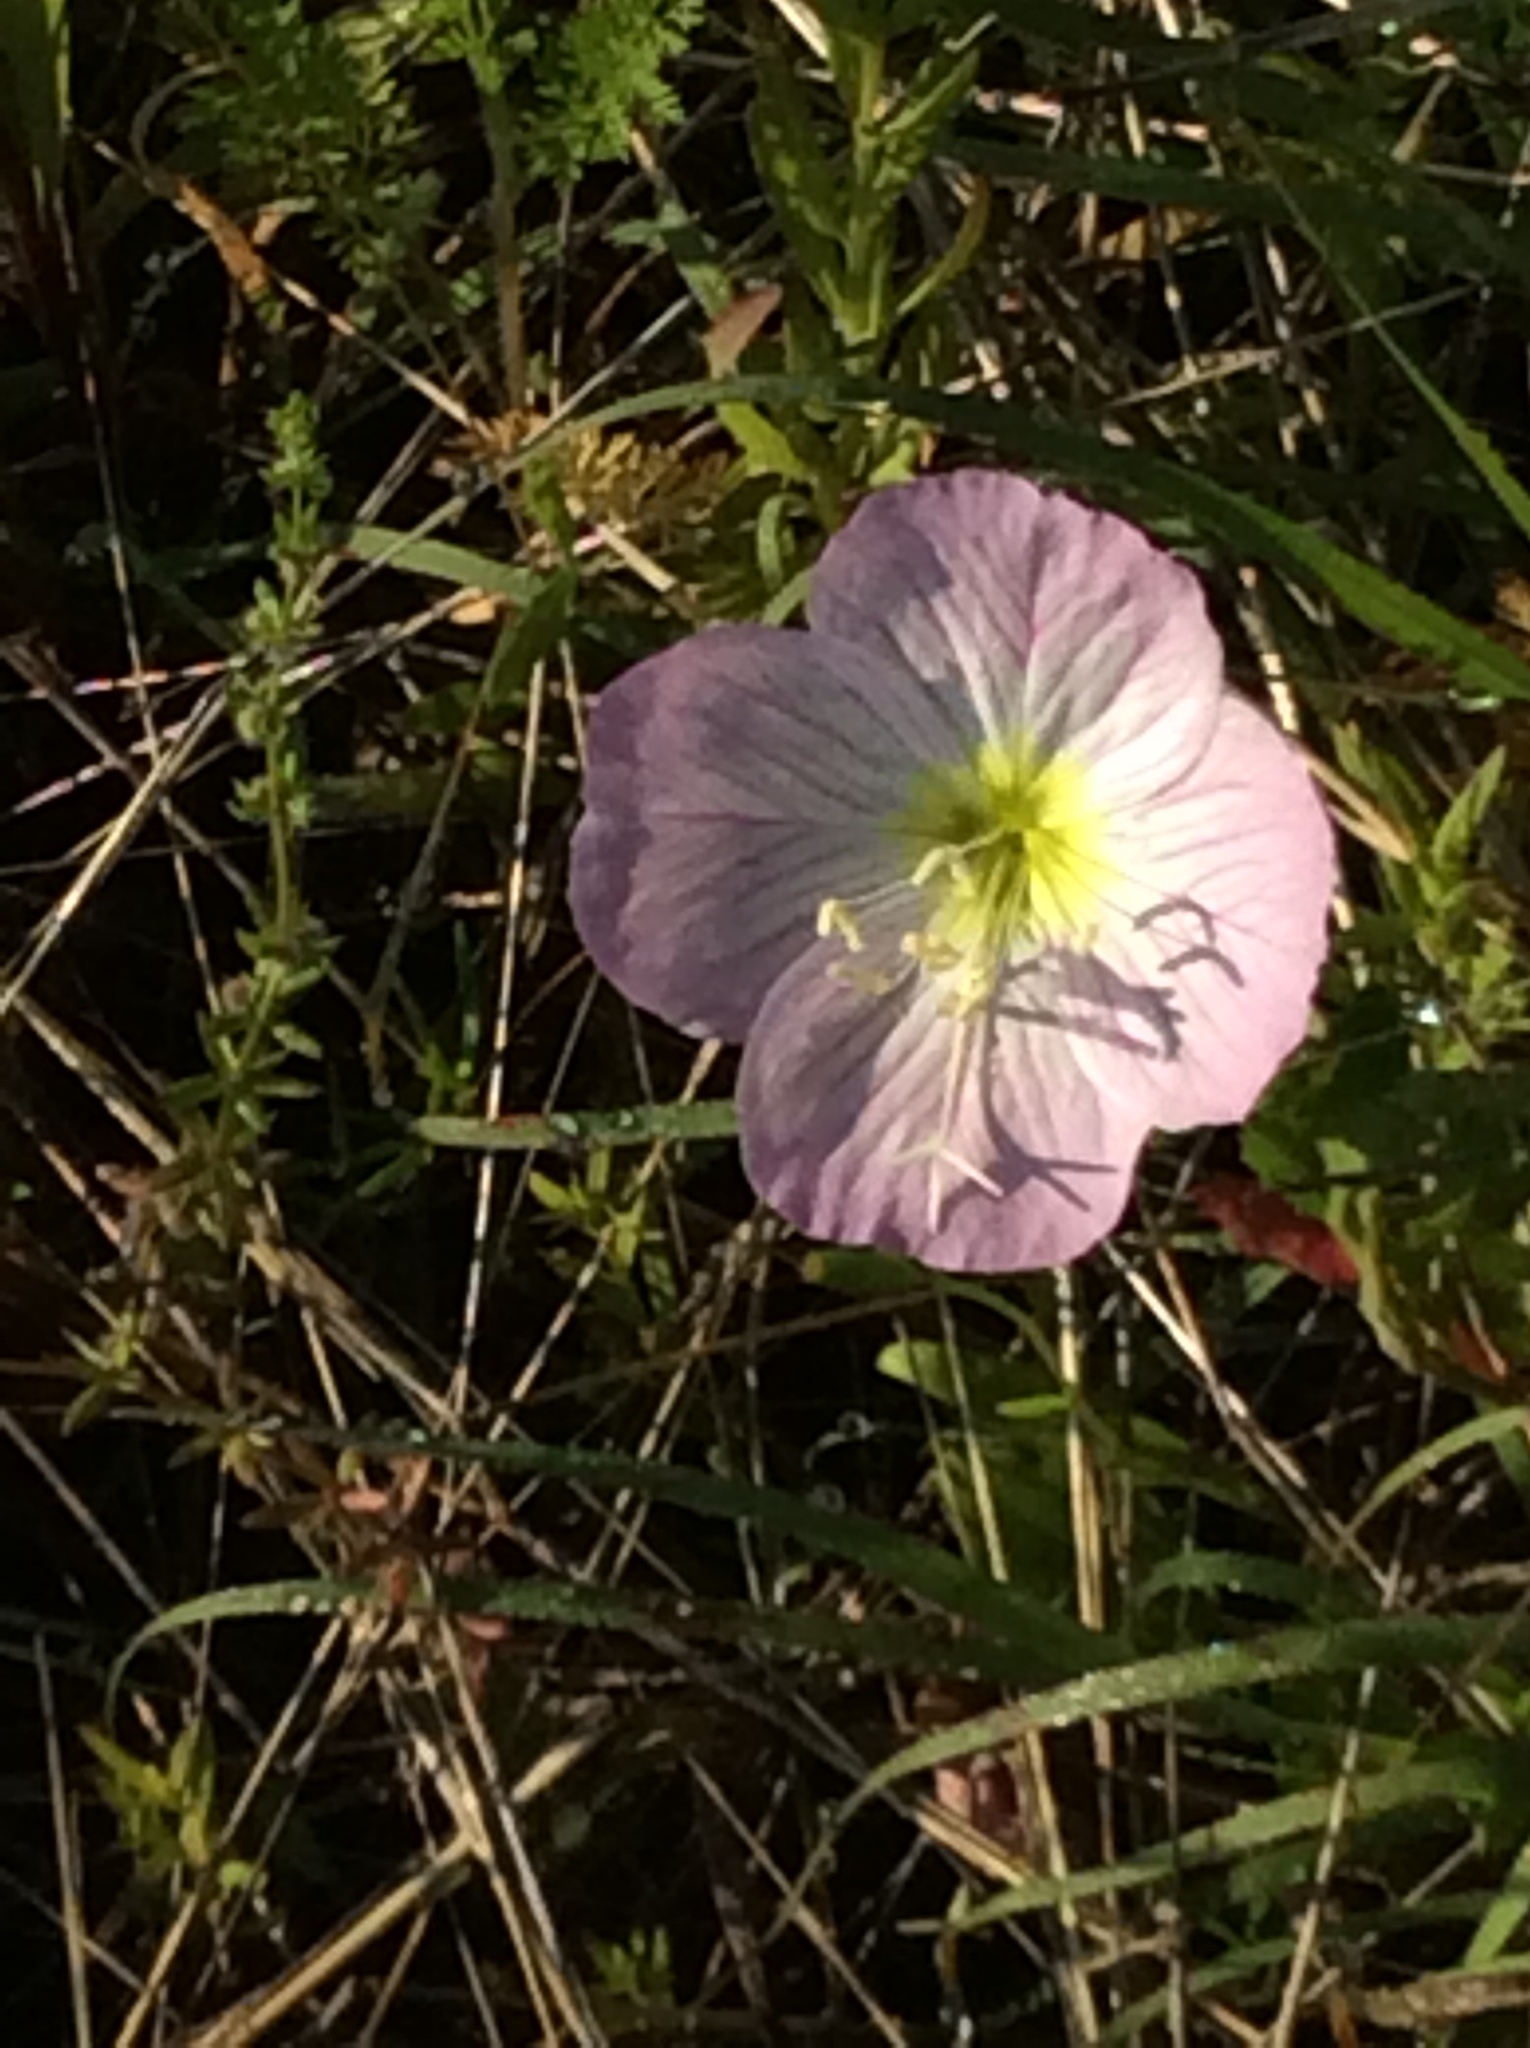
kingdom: Plantae
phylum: Tracheophyta
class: Magnoliopsida
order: Myrtales
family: Onagraceae
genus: Oenothera
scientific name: Oenothera speciosa
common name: White evening-primrose
